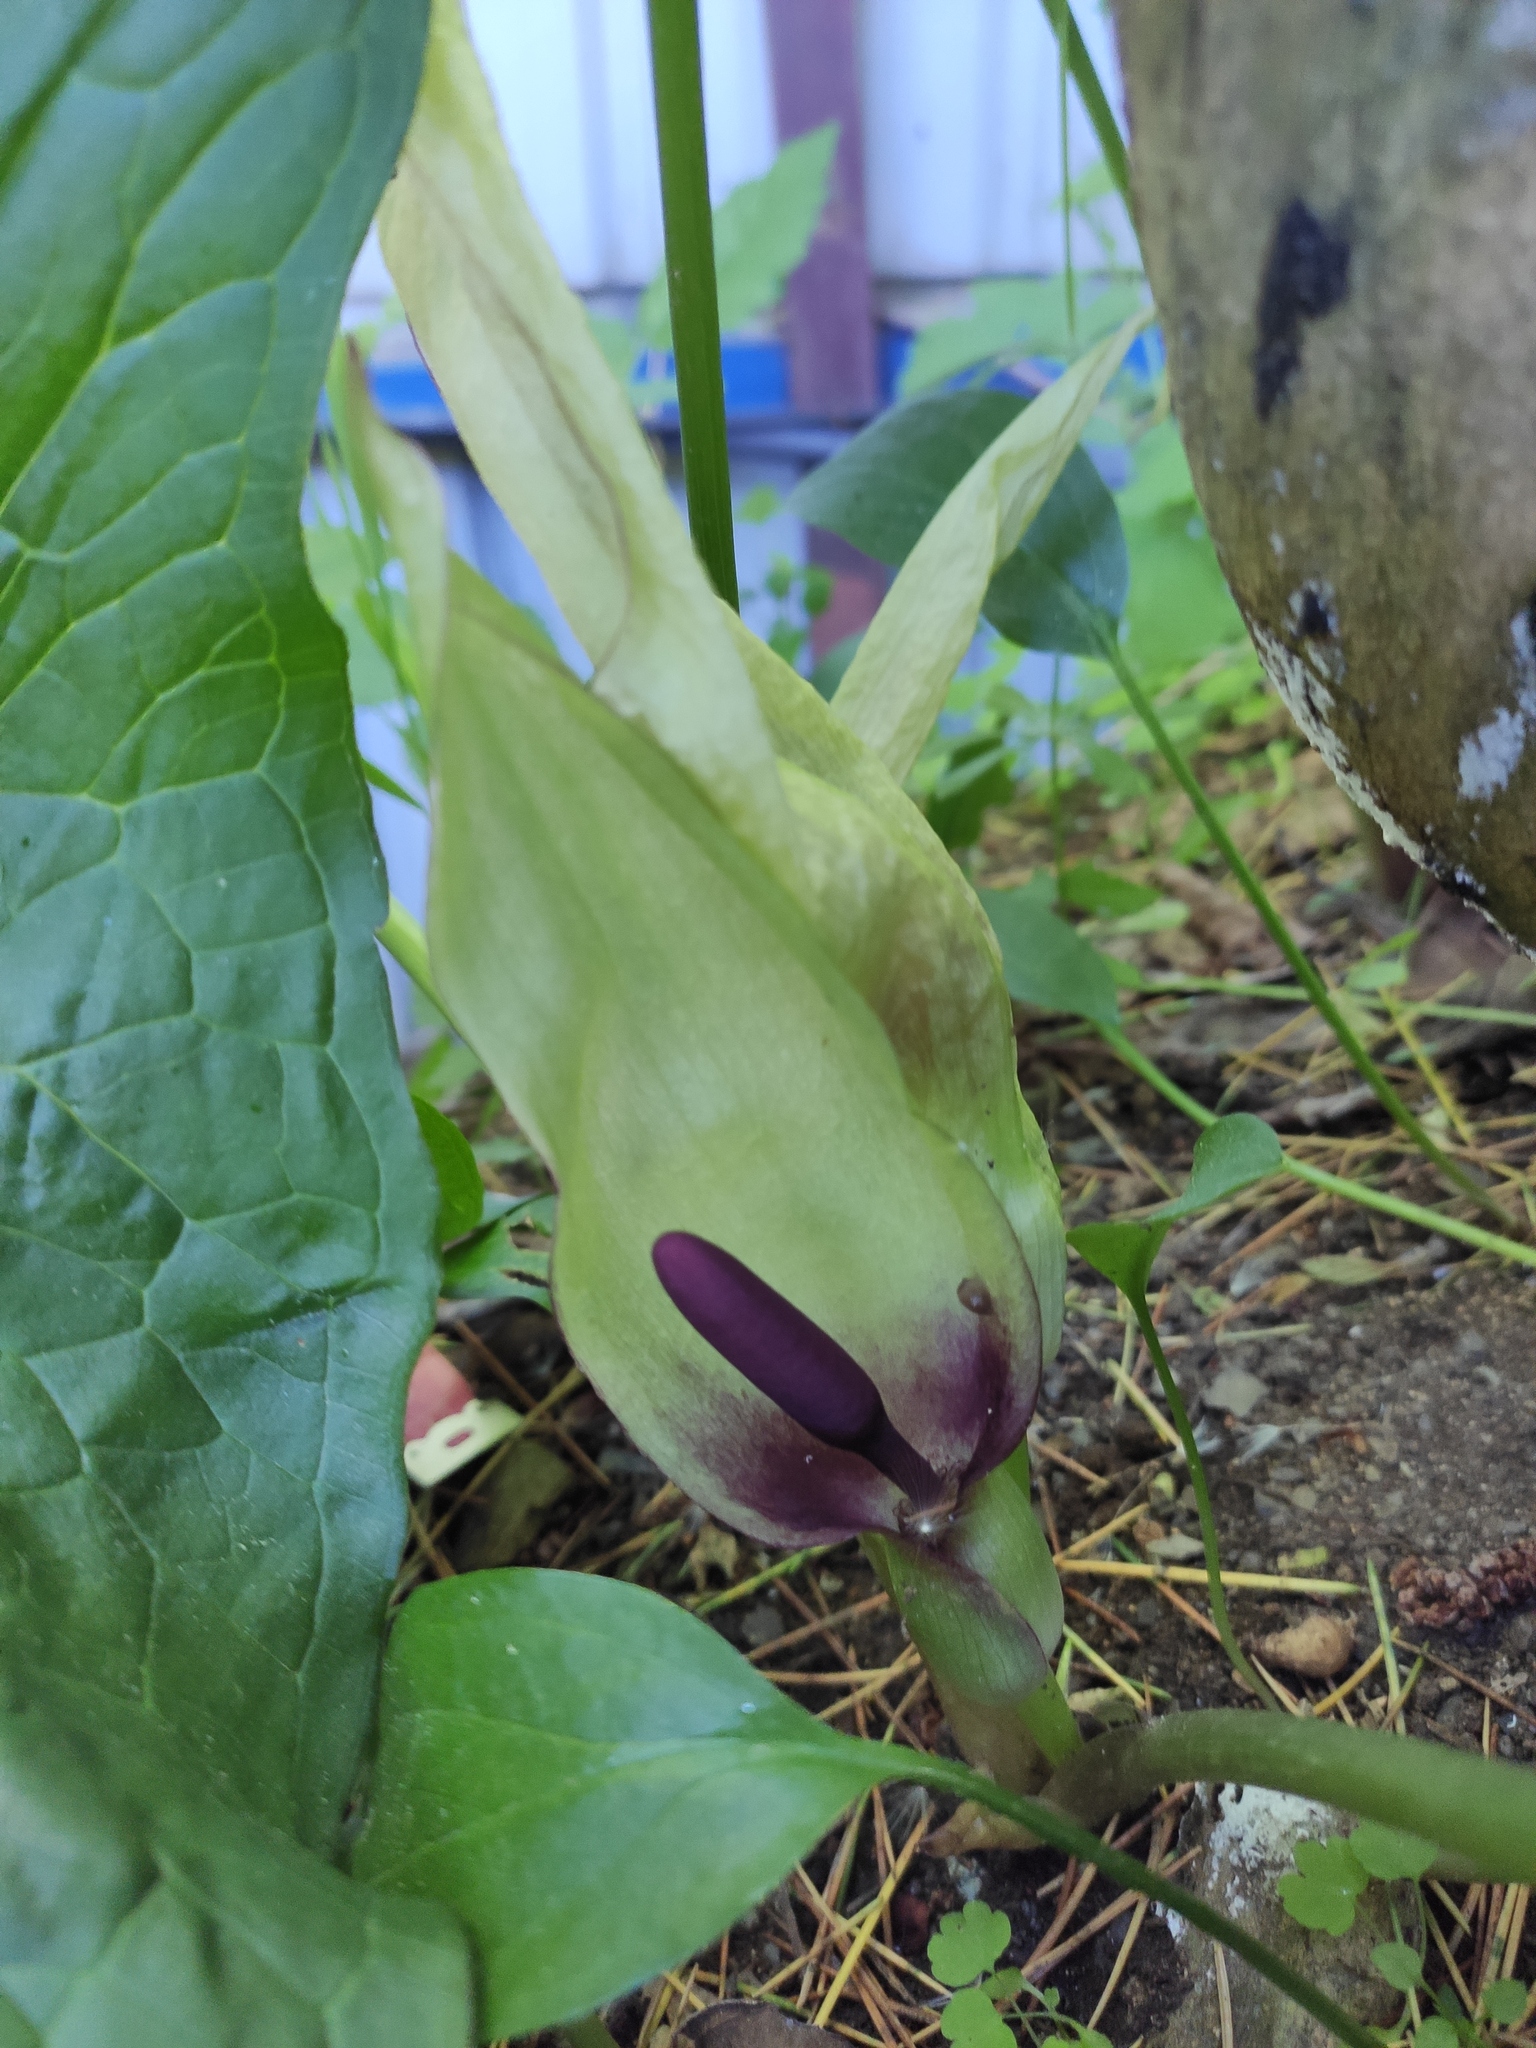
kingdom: Plantae
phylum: Tracheophyta
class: Liliopsida
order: Alismatales
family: Araceae
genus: Arum
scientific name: Arum orientale
